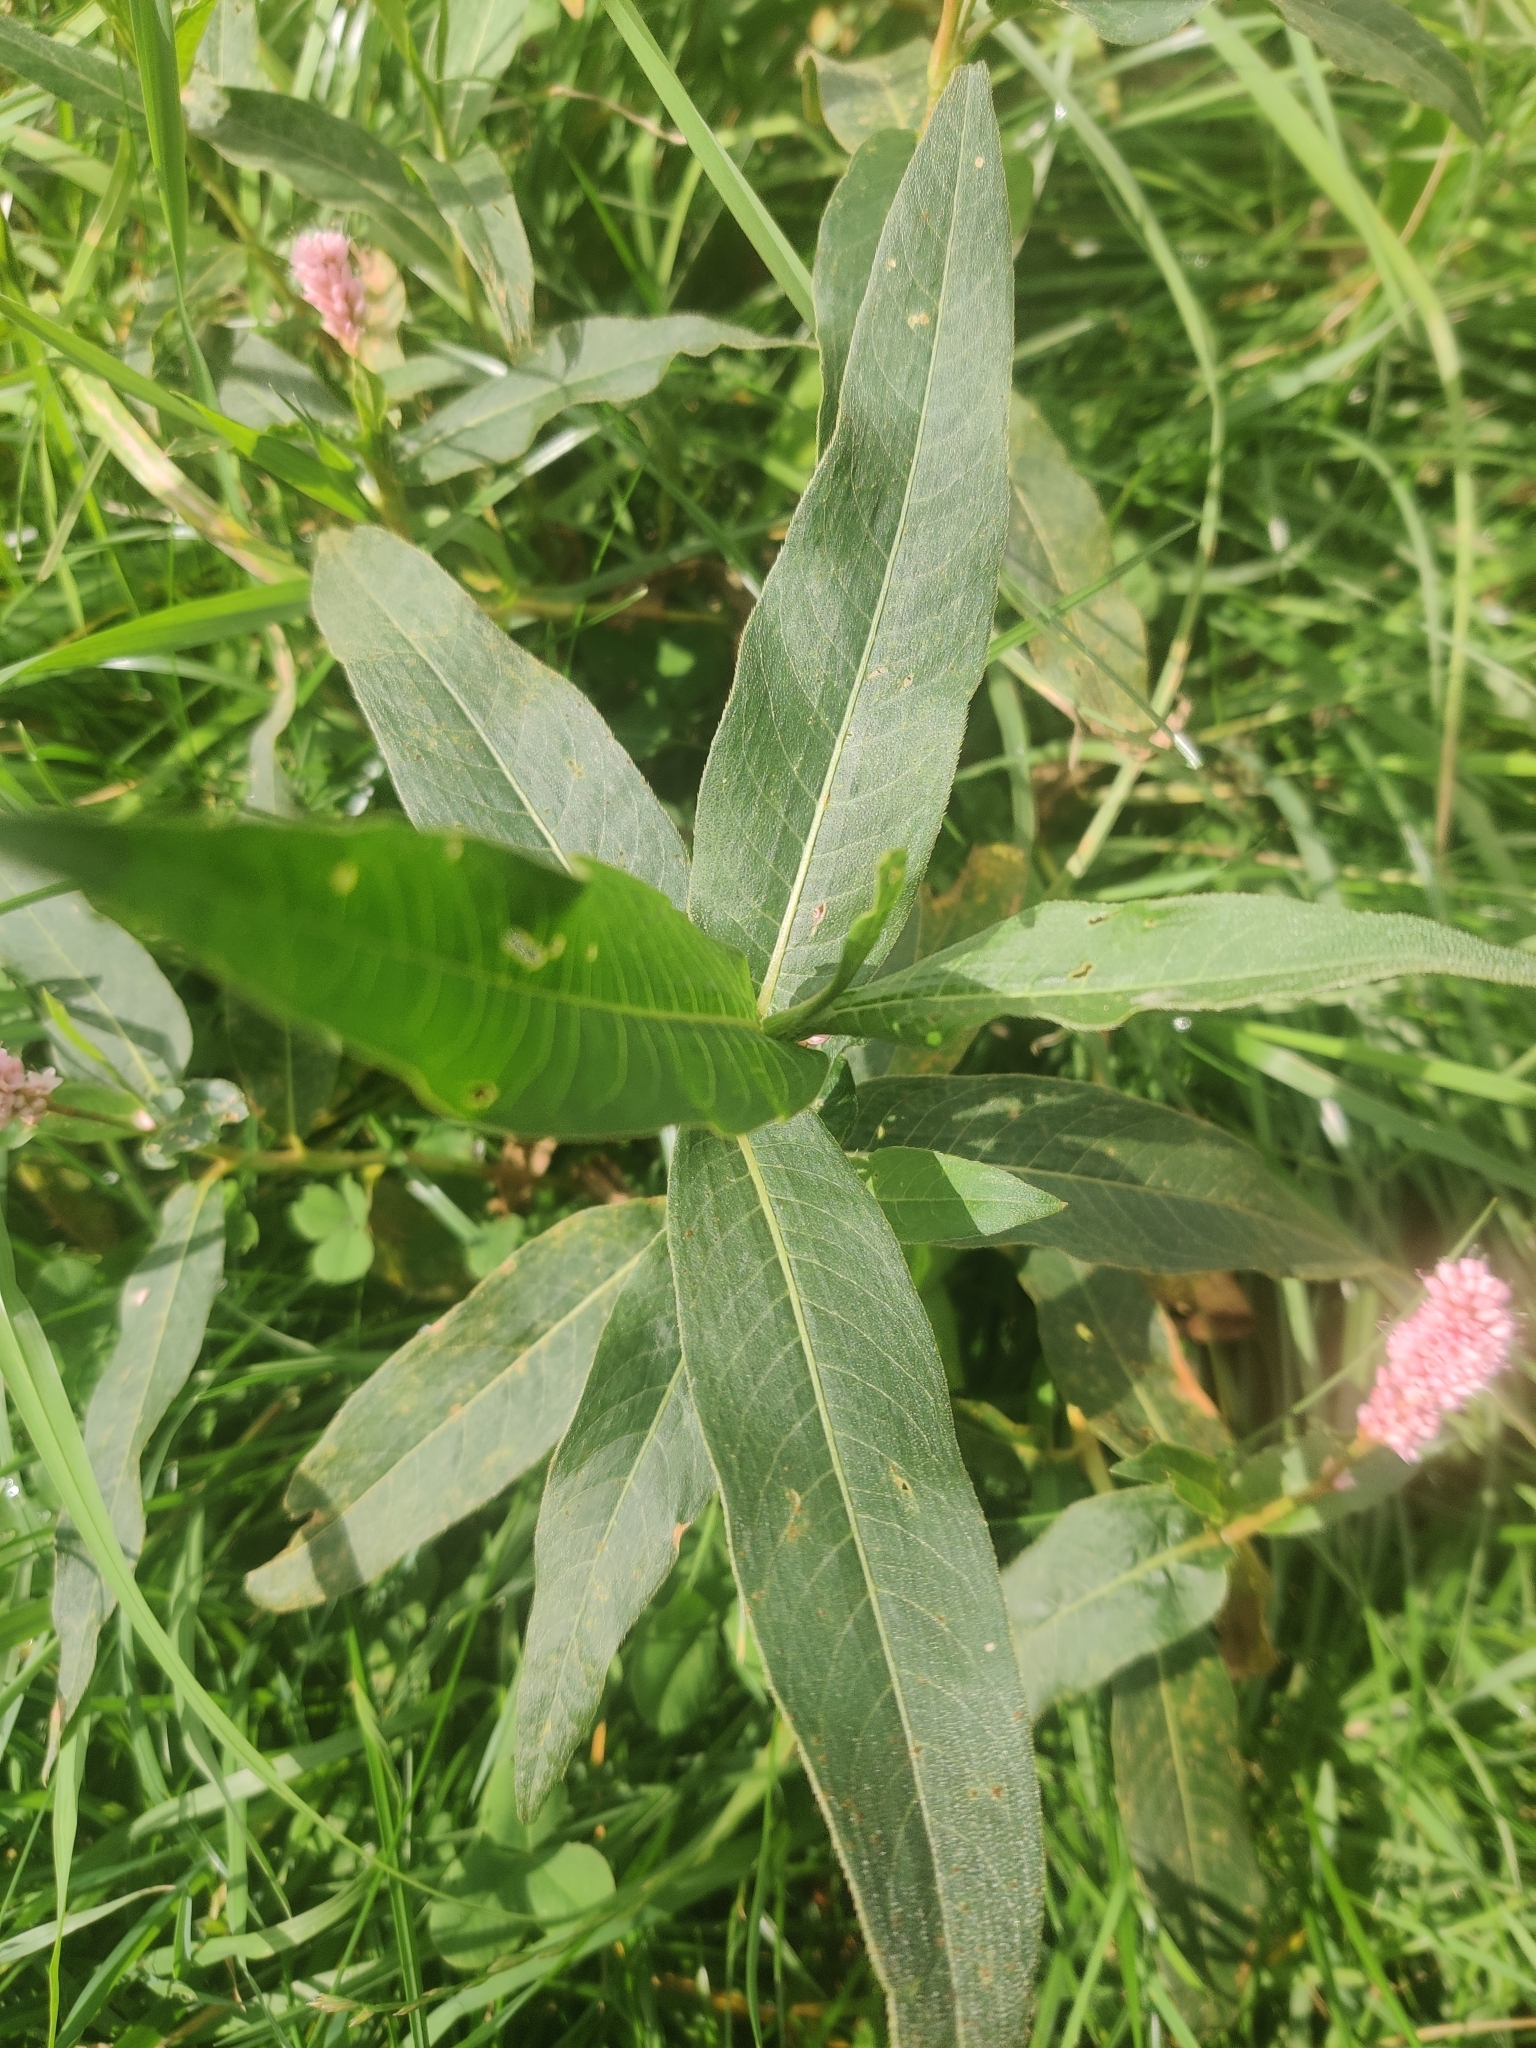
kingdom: Plantae
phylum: Tracheophyta
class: Magnoliopsida
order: Caryophyllales
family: Polygonaceae
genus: Persicaria
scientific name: Persicaria amphibia
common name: Amphibious bistort
